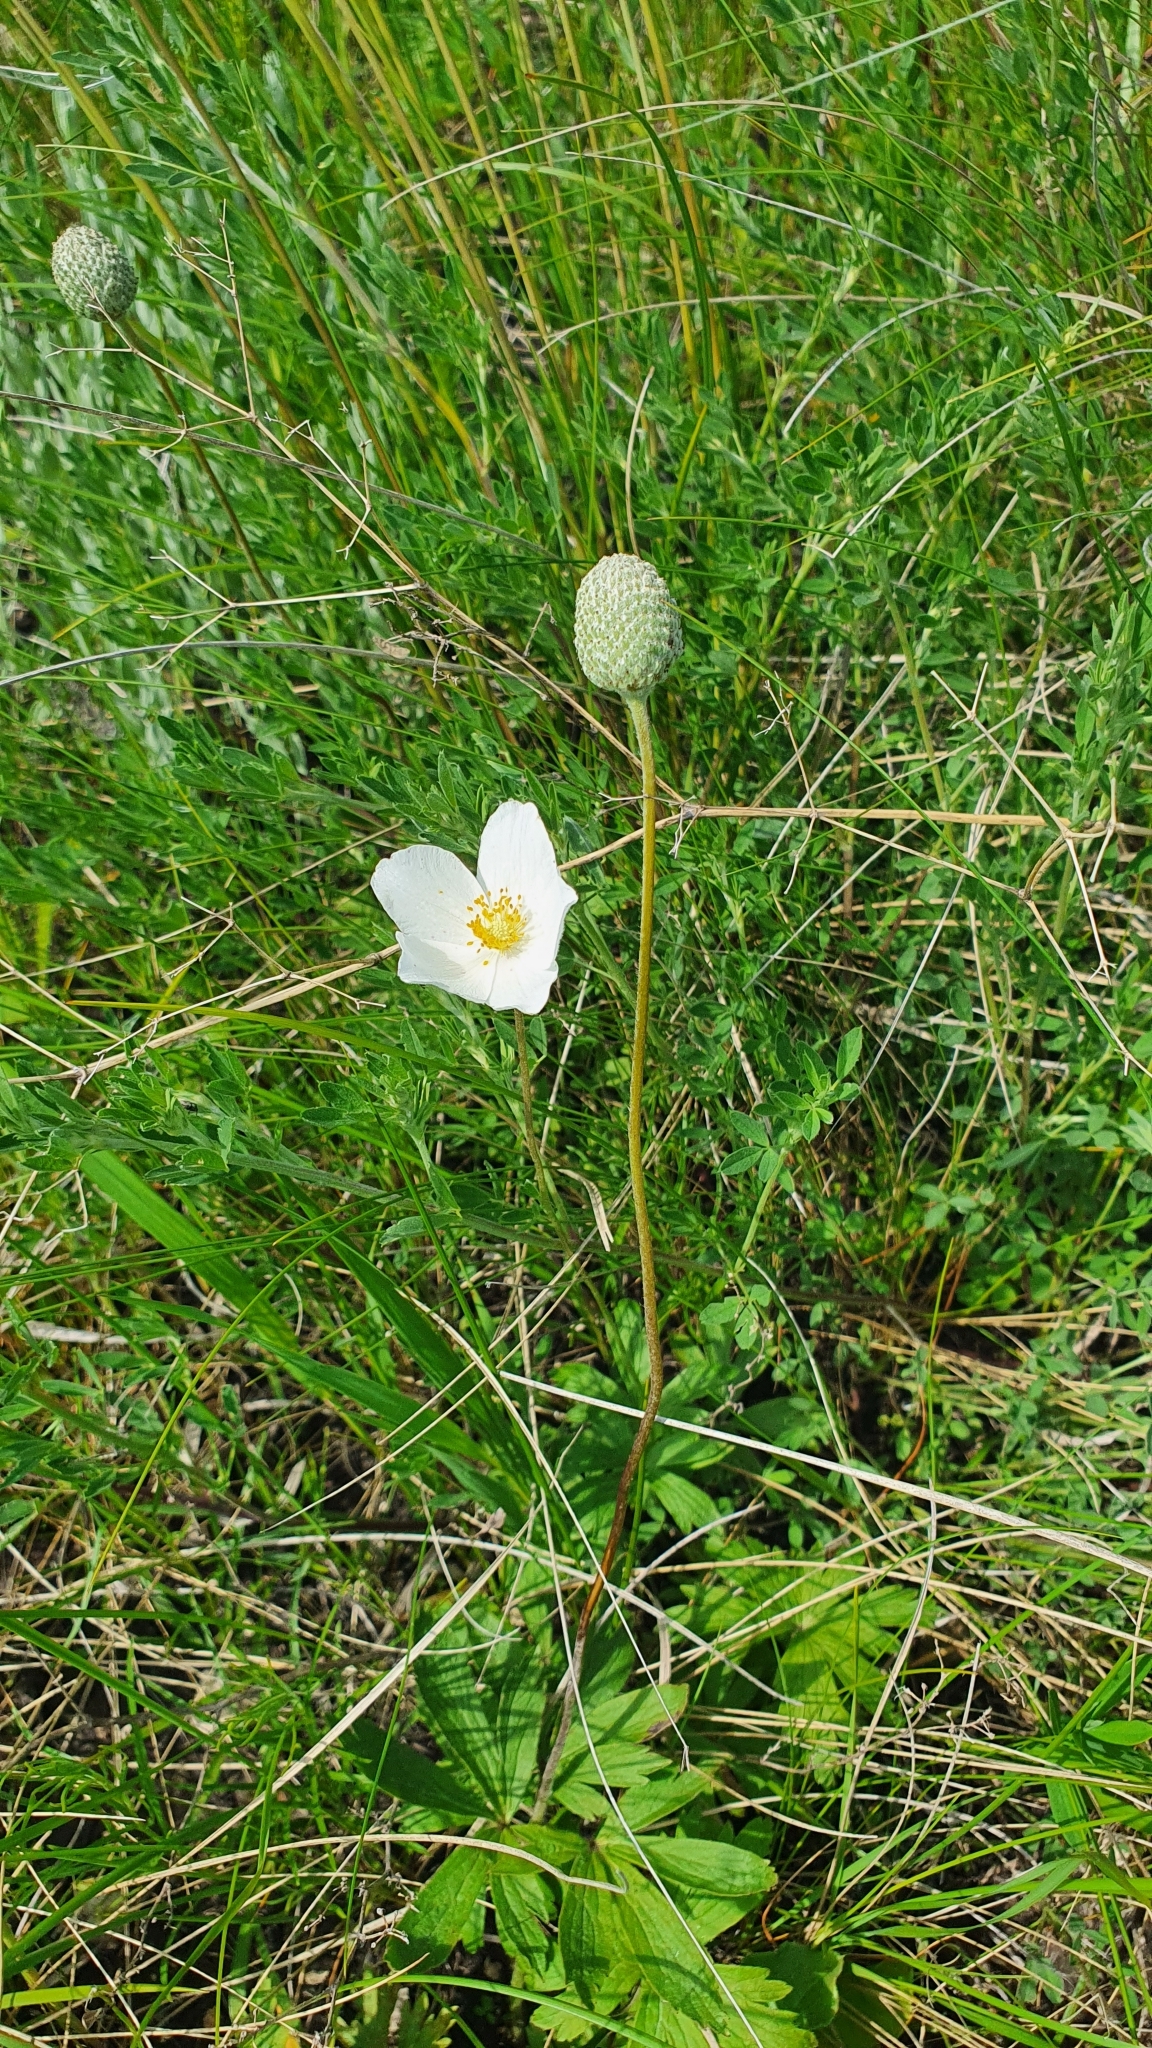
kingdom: Plantae
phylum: Tracheophyta
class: Magnoliopsida
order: Ranunculales
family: Ranunculaceae
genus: Anemone
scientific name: Anemone sylvestris
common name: Snowdrop anemone
